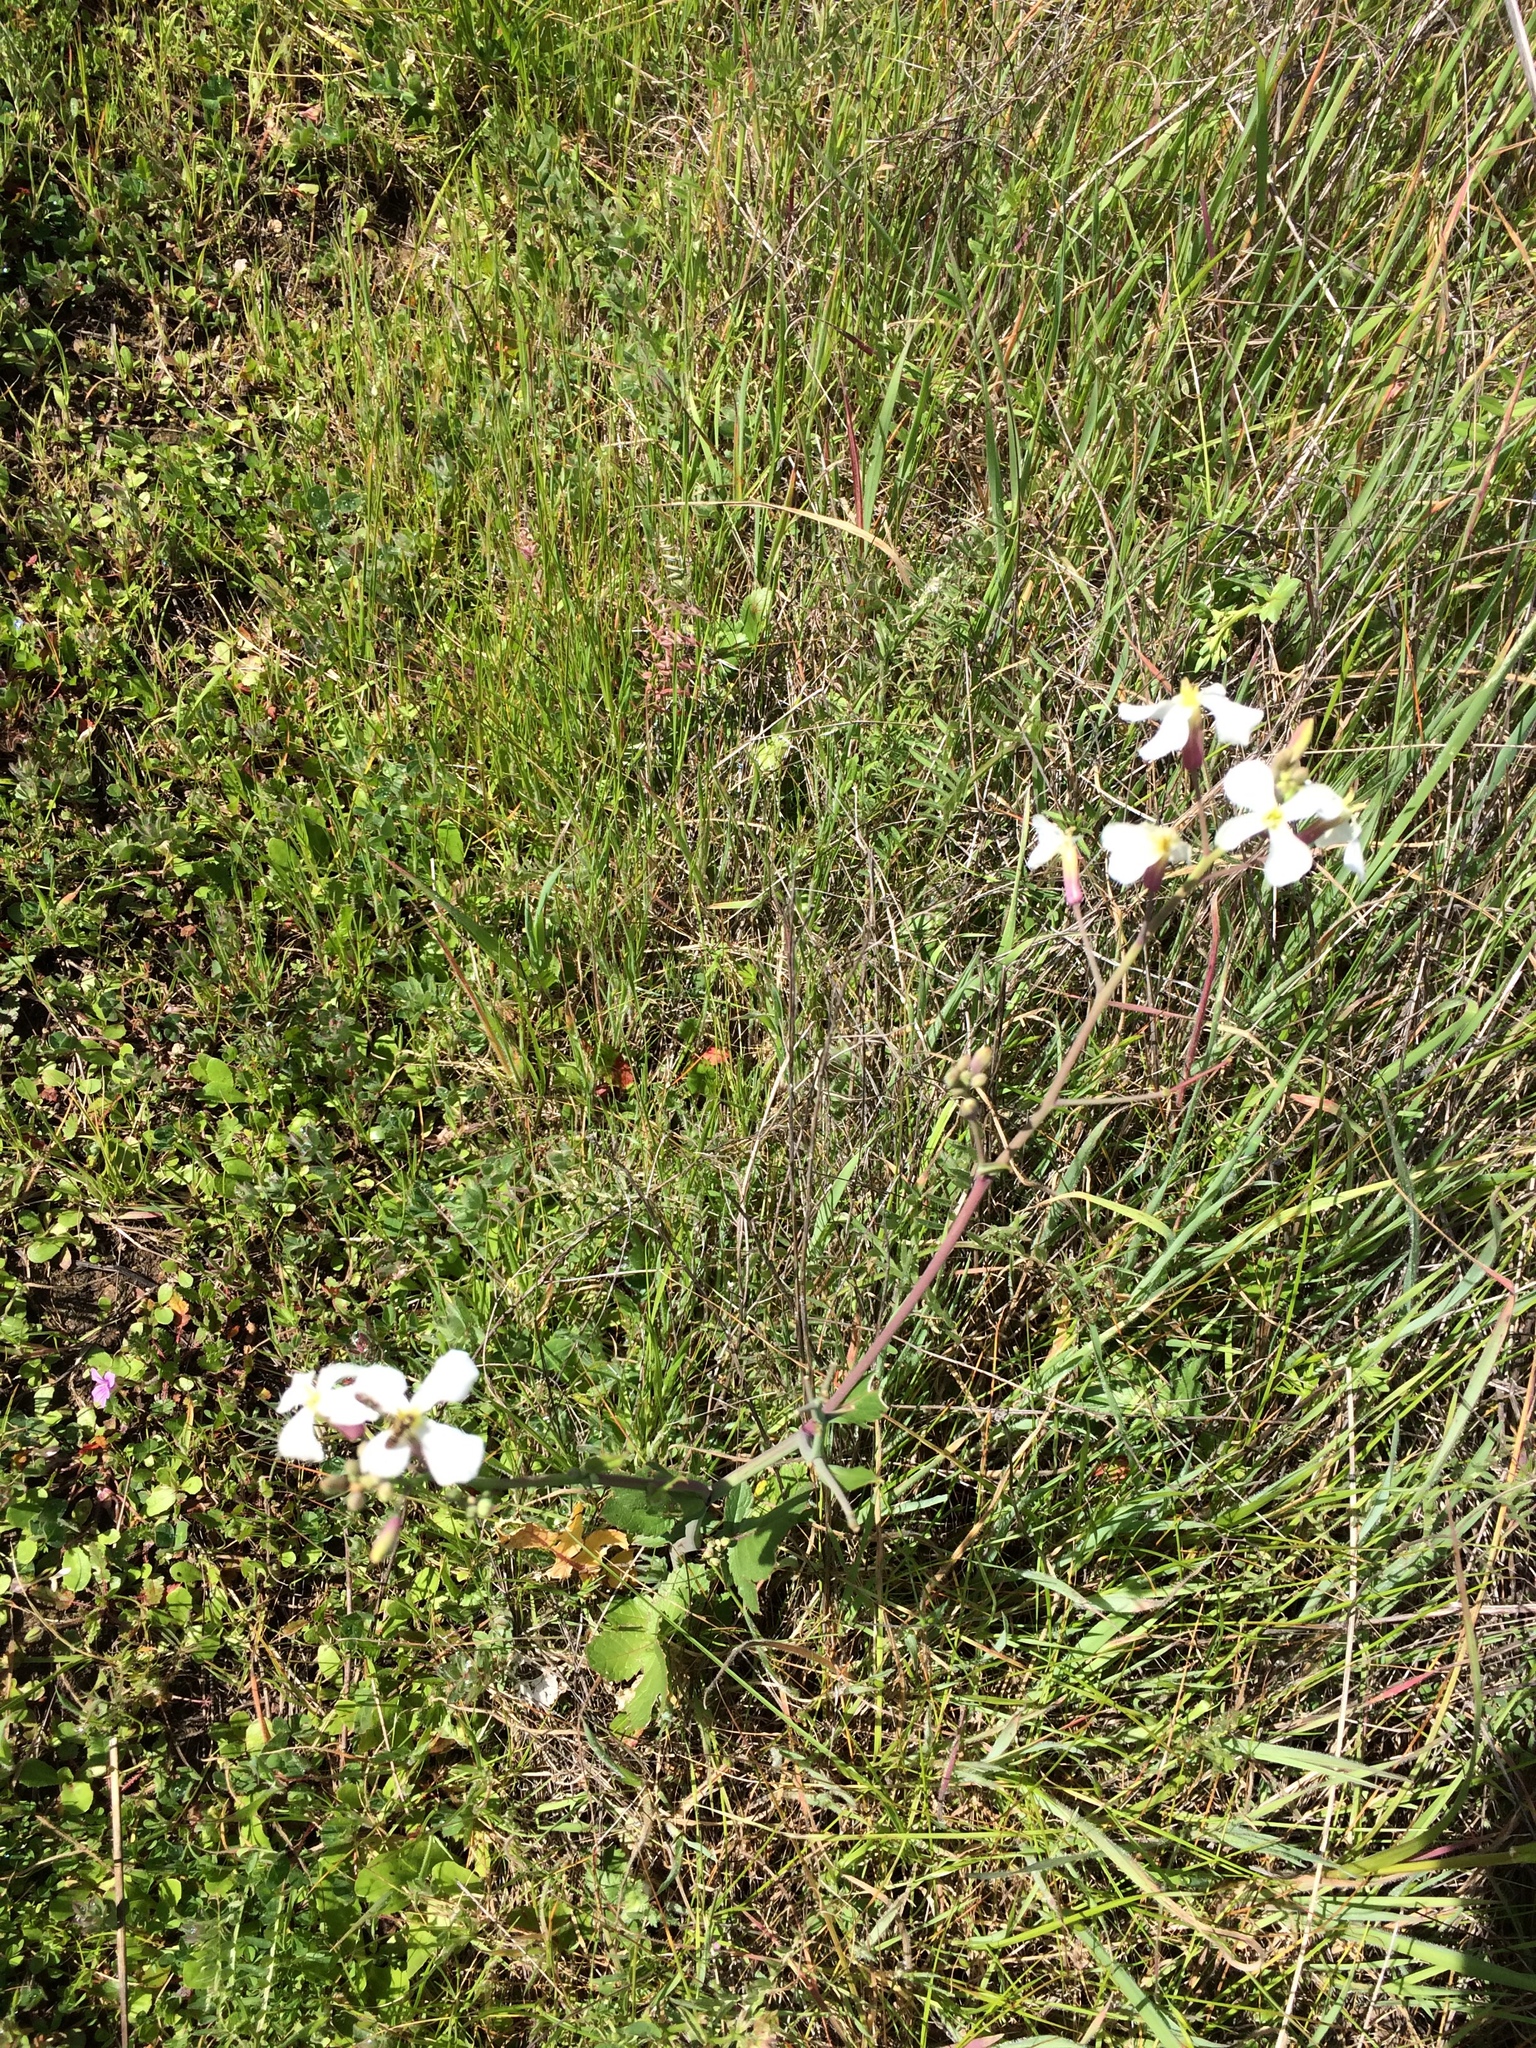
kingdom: Plantae
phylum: Tracheophyta
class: Magnoliopsida
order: Brassicales
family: Brassicaceae
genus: Raphanus
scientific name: Raphanus sativus
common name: Cultivated radish
